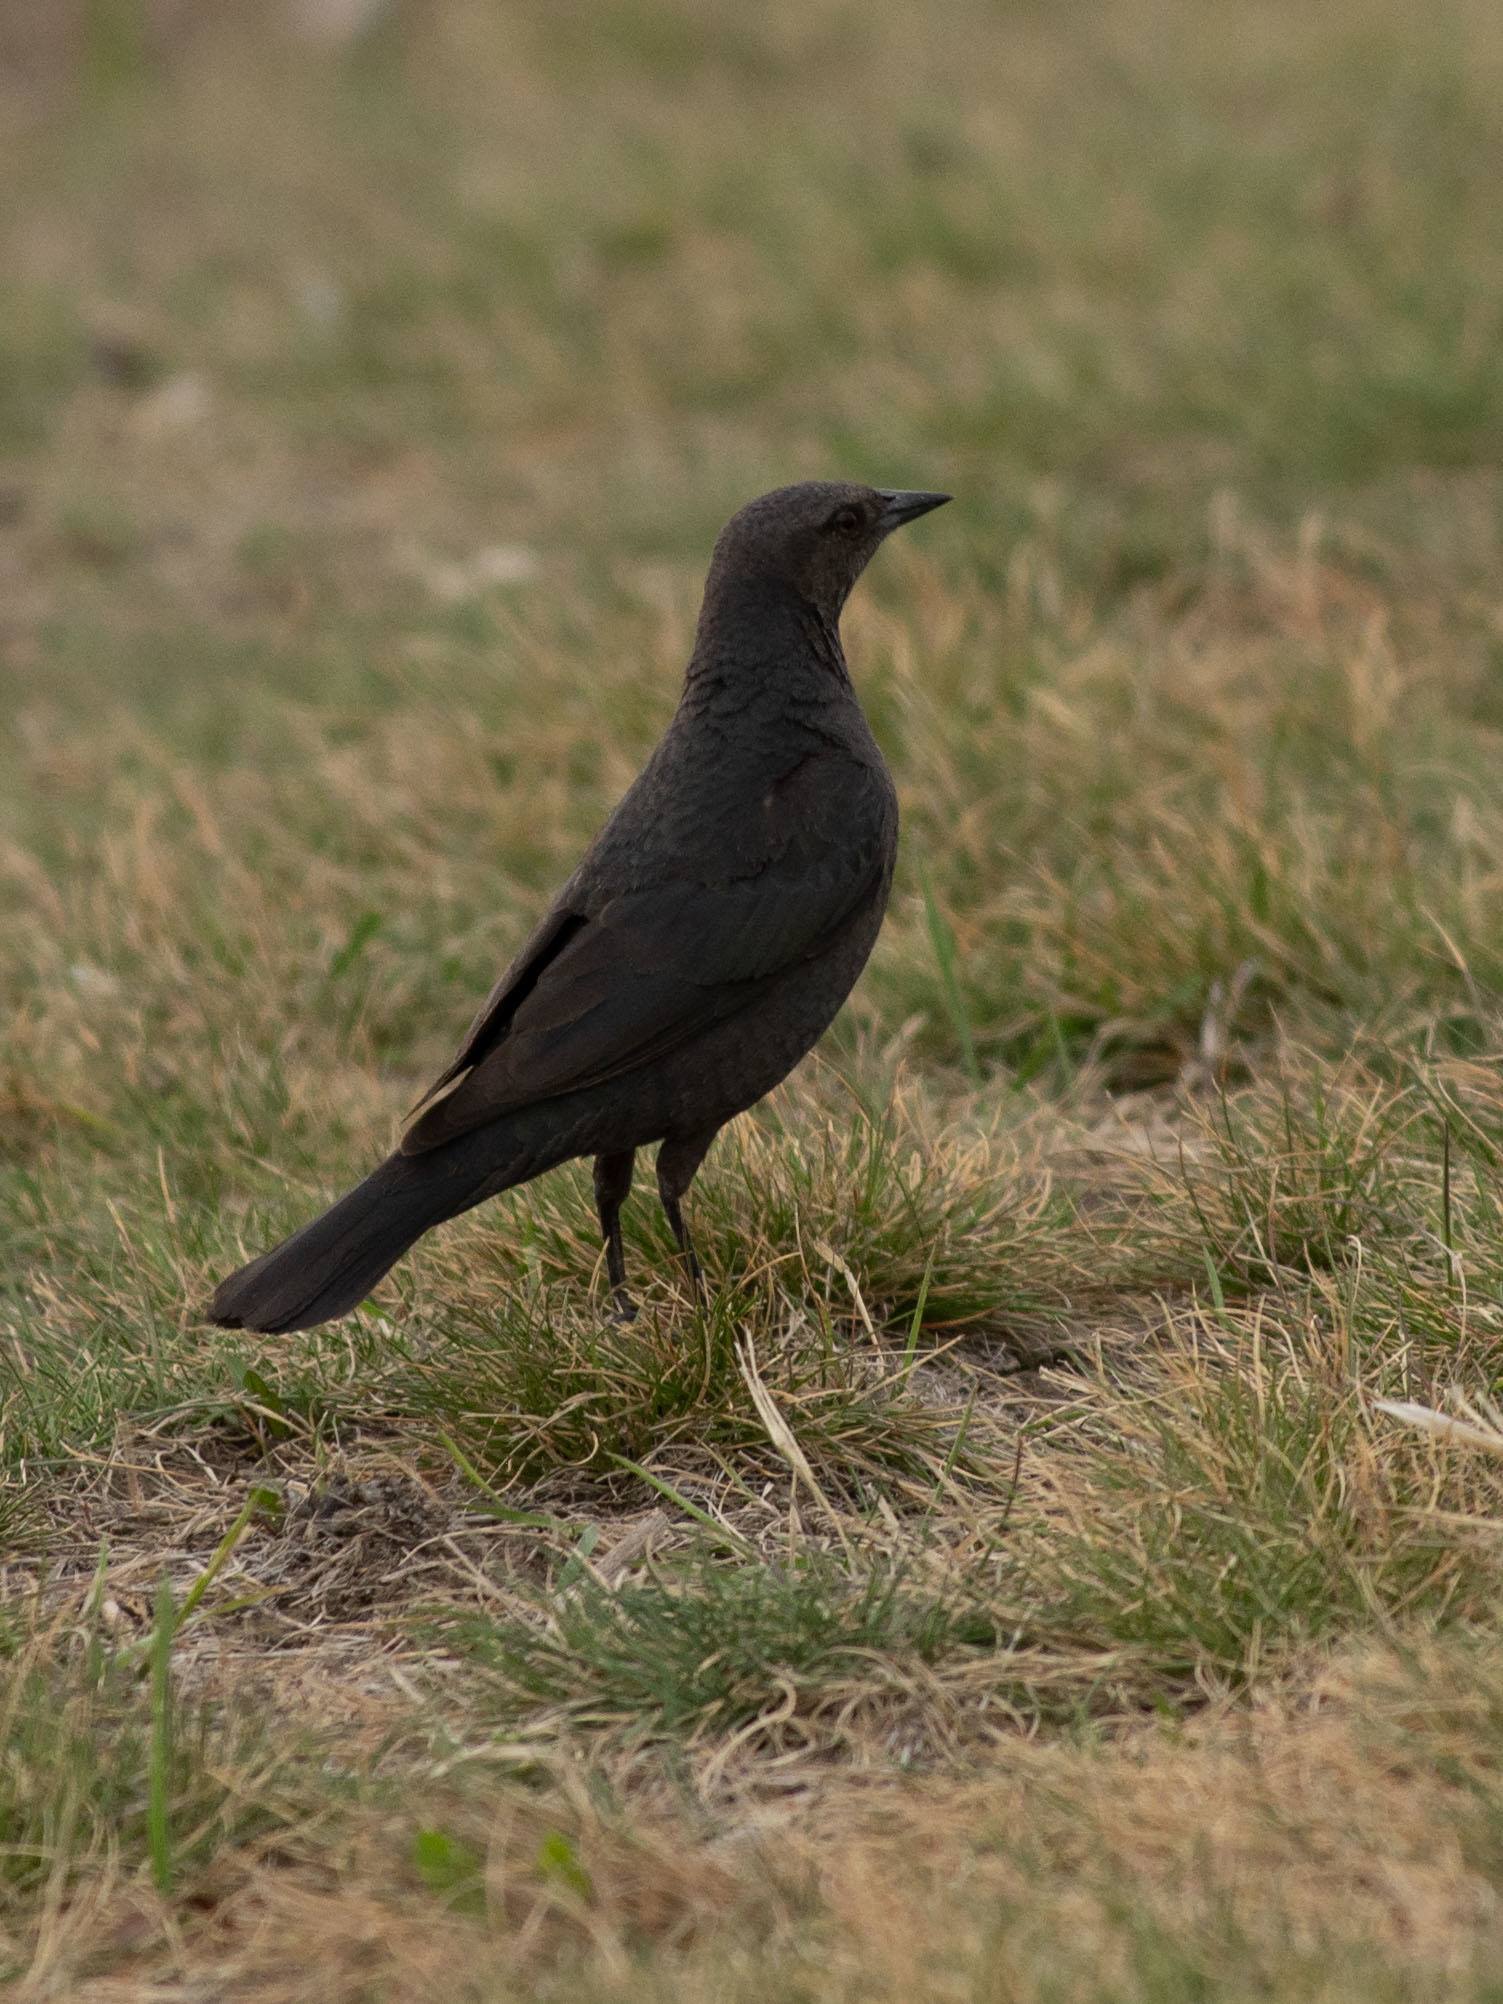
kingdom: Animalia
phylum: Chordata
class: Aves
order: Passeriformes
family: Icteridae
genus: Euphagus
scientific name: Euphagus cyanocephalus
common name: Brewer's blackbird
